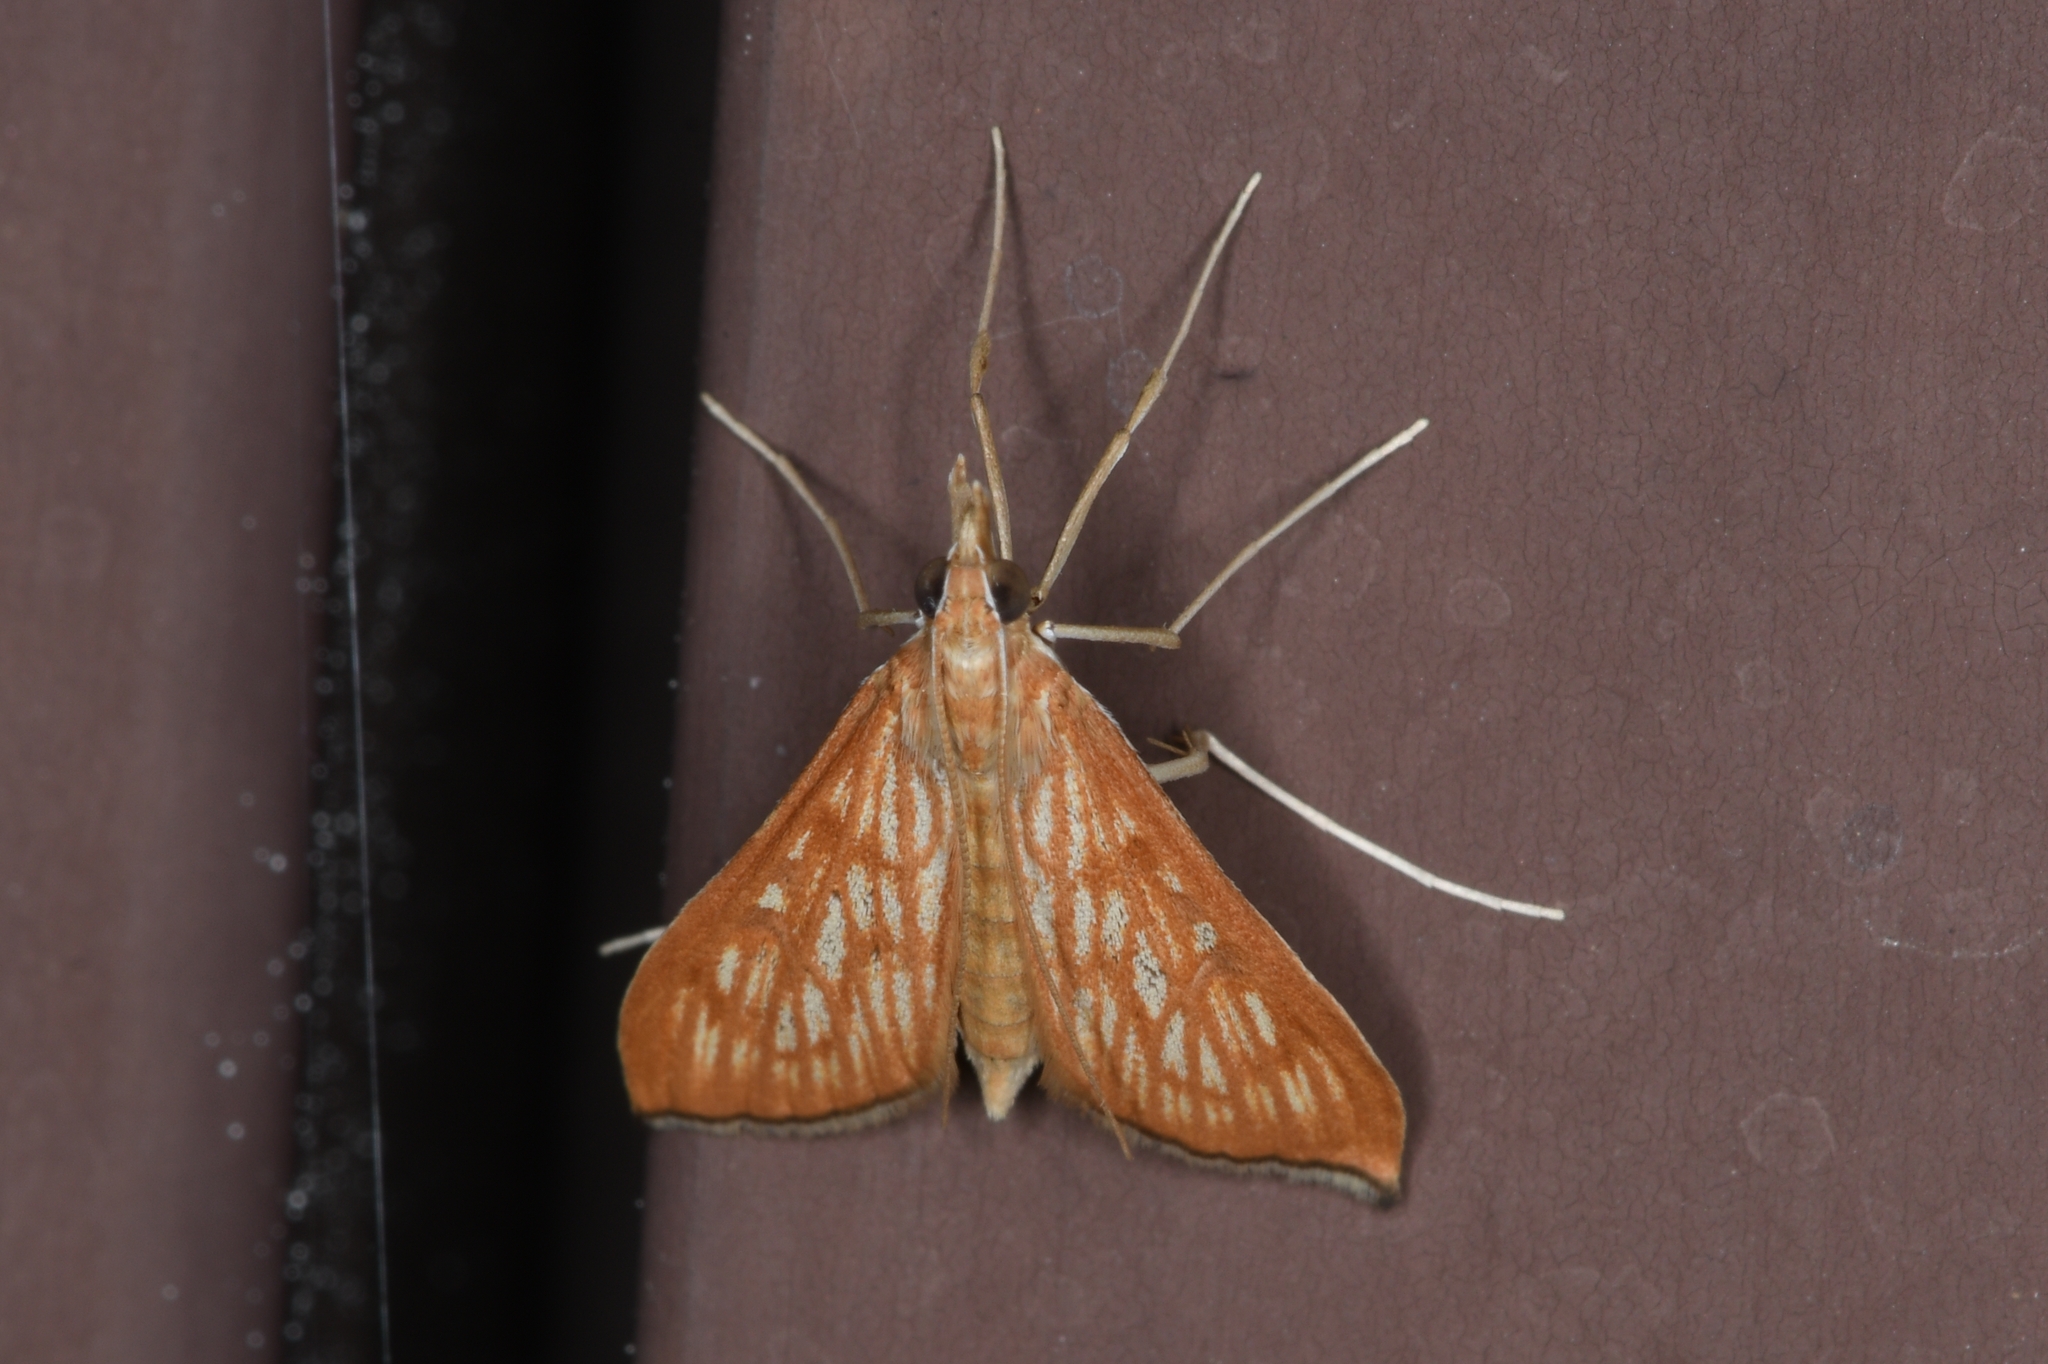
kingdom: Animalia
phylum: Arthropoda
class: Insecta
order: Lepidoptera
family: Crambidae
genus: Antigastra
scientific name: Antigastra catalaunalis
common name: Spanish dot
